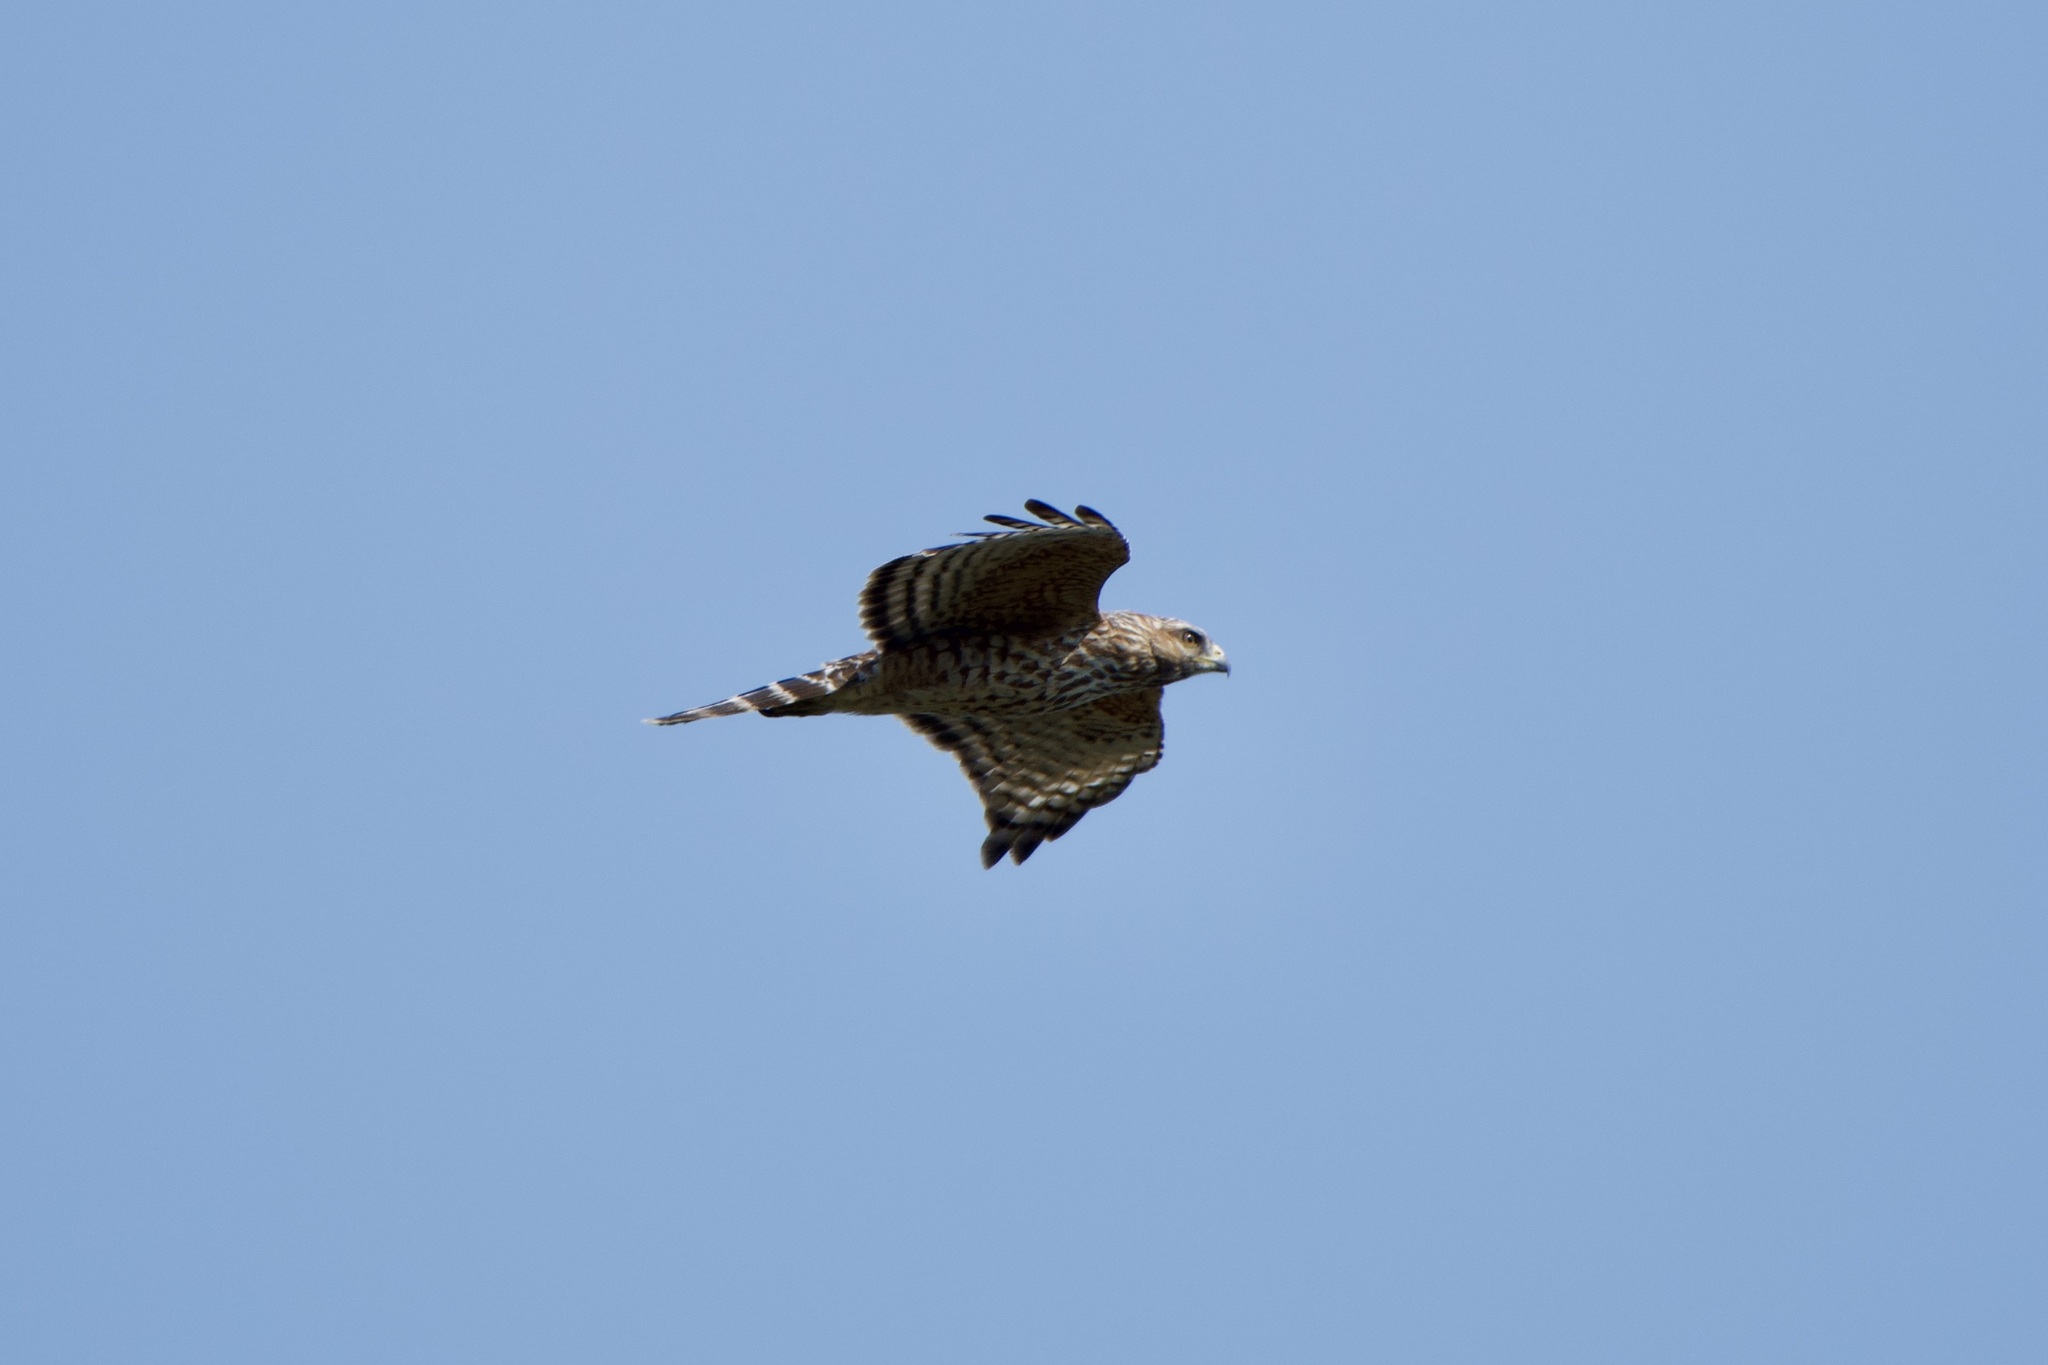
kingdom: Animalia
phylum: Chordata
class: Aves
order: Accipitriformes
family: Accipitridae
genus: Buteo
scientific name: Buteo lineatus
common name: Red-shouldered hawk
